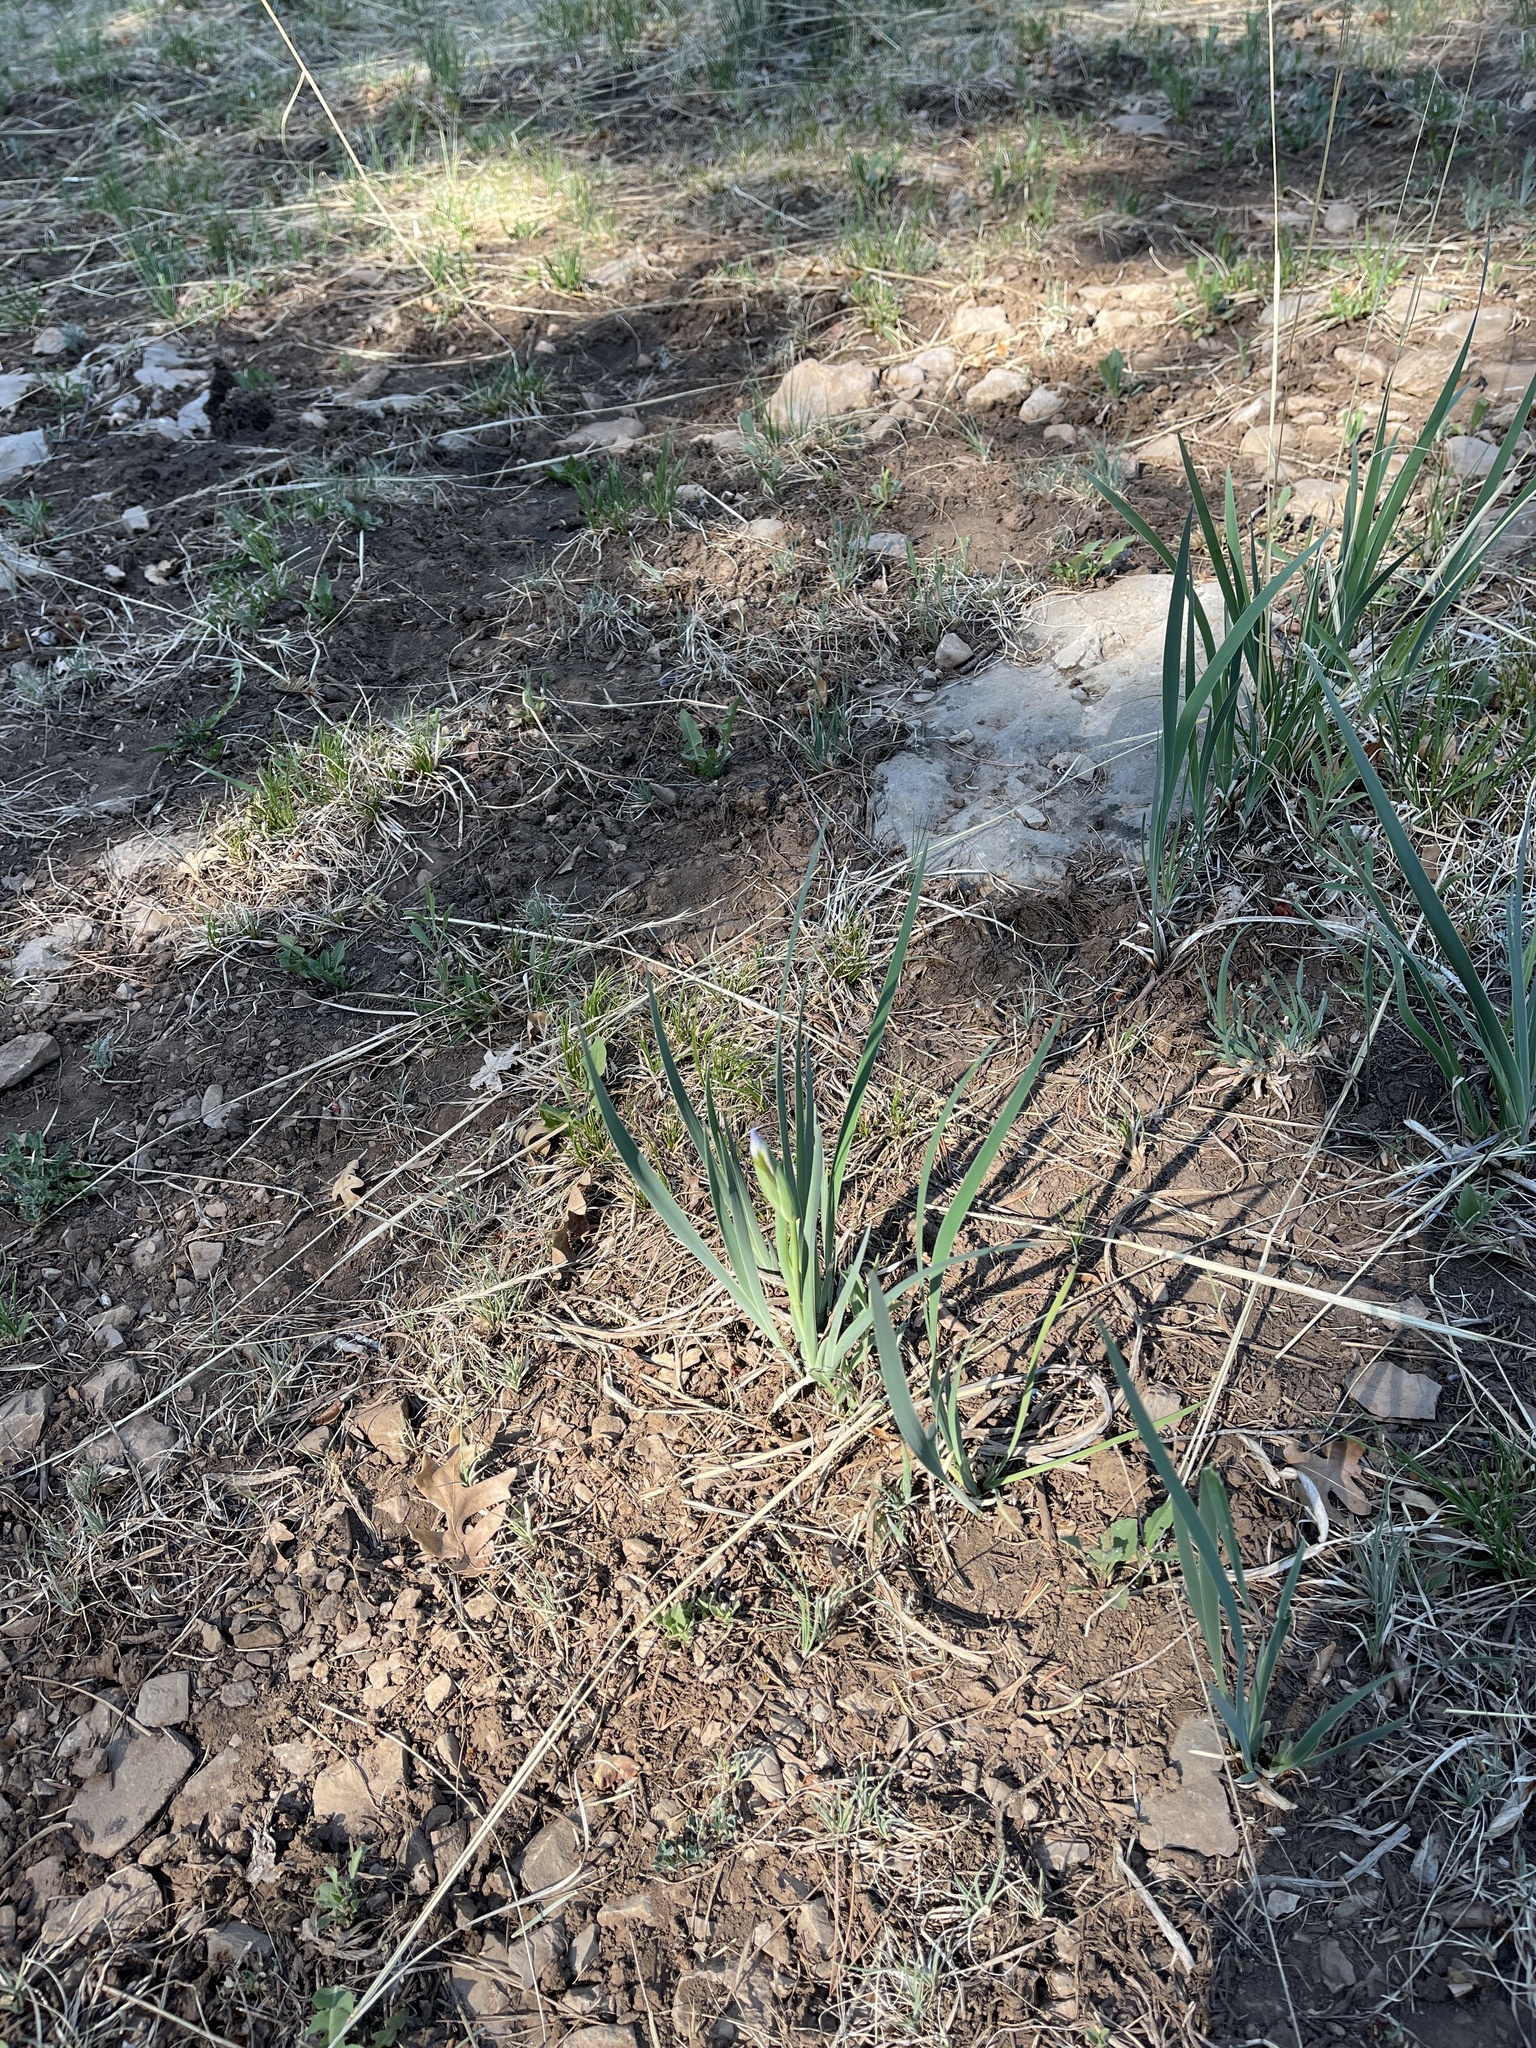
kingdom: Plantae
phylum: Tracheophyta
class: Liliopsida
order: Asparagales
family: Iridaceae
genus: Iris
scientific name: Iris missouriensis
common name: Rocky mountain iris
